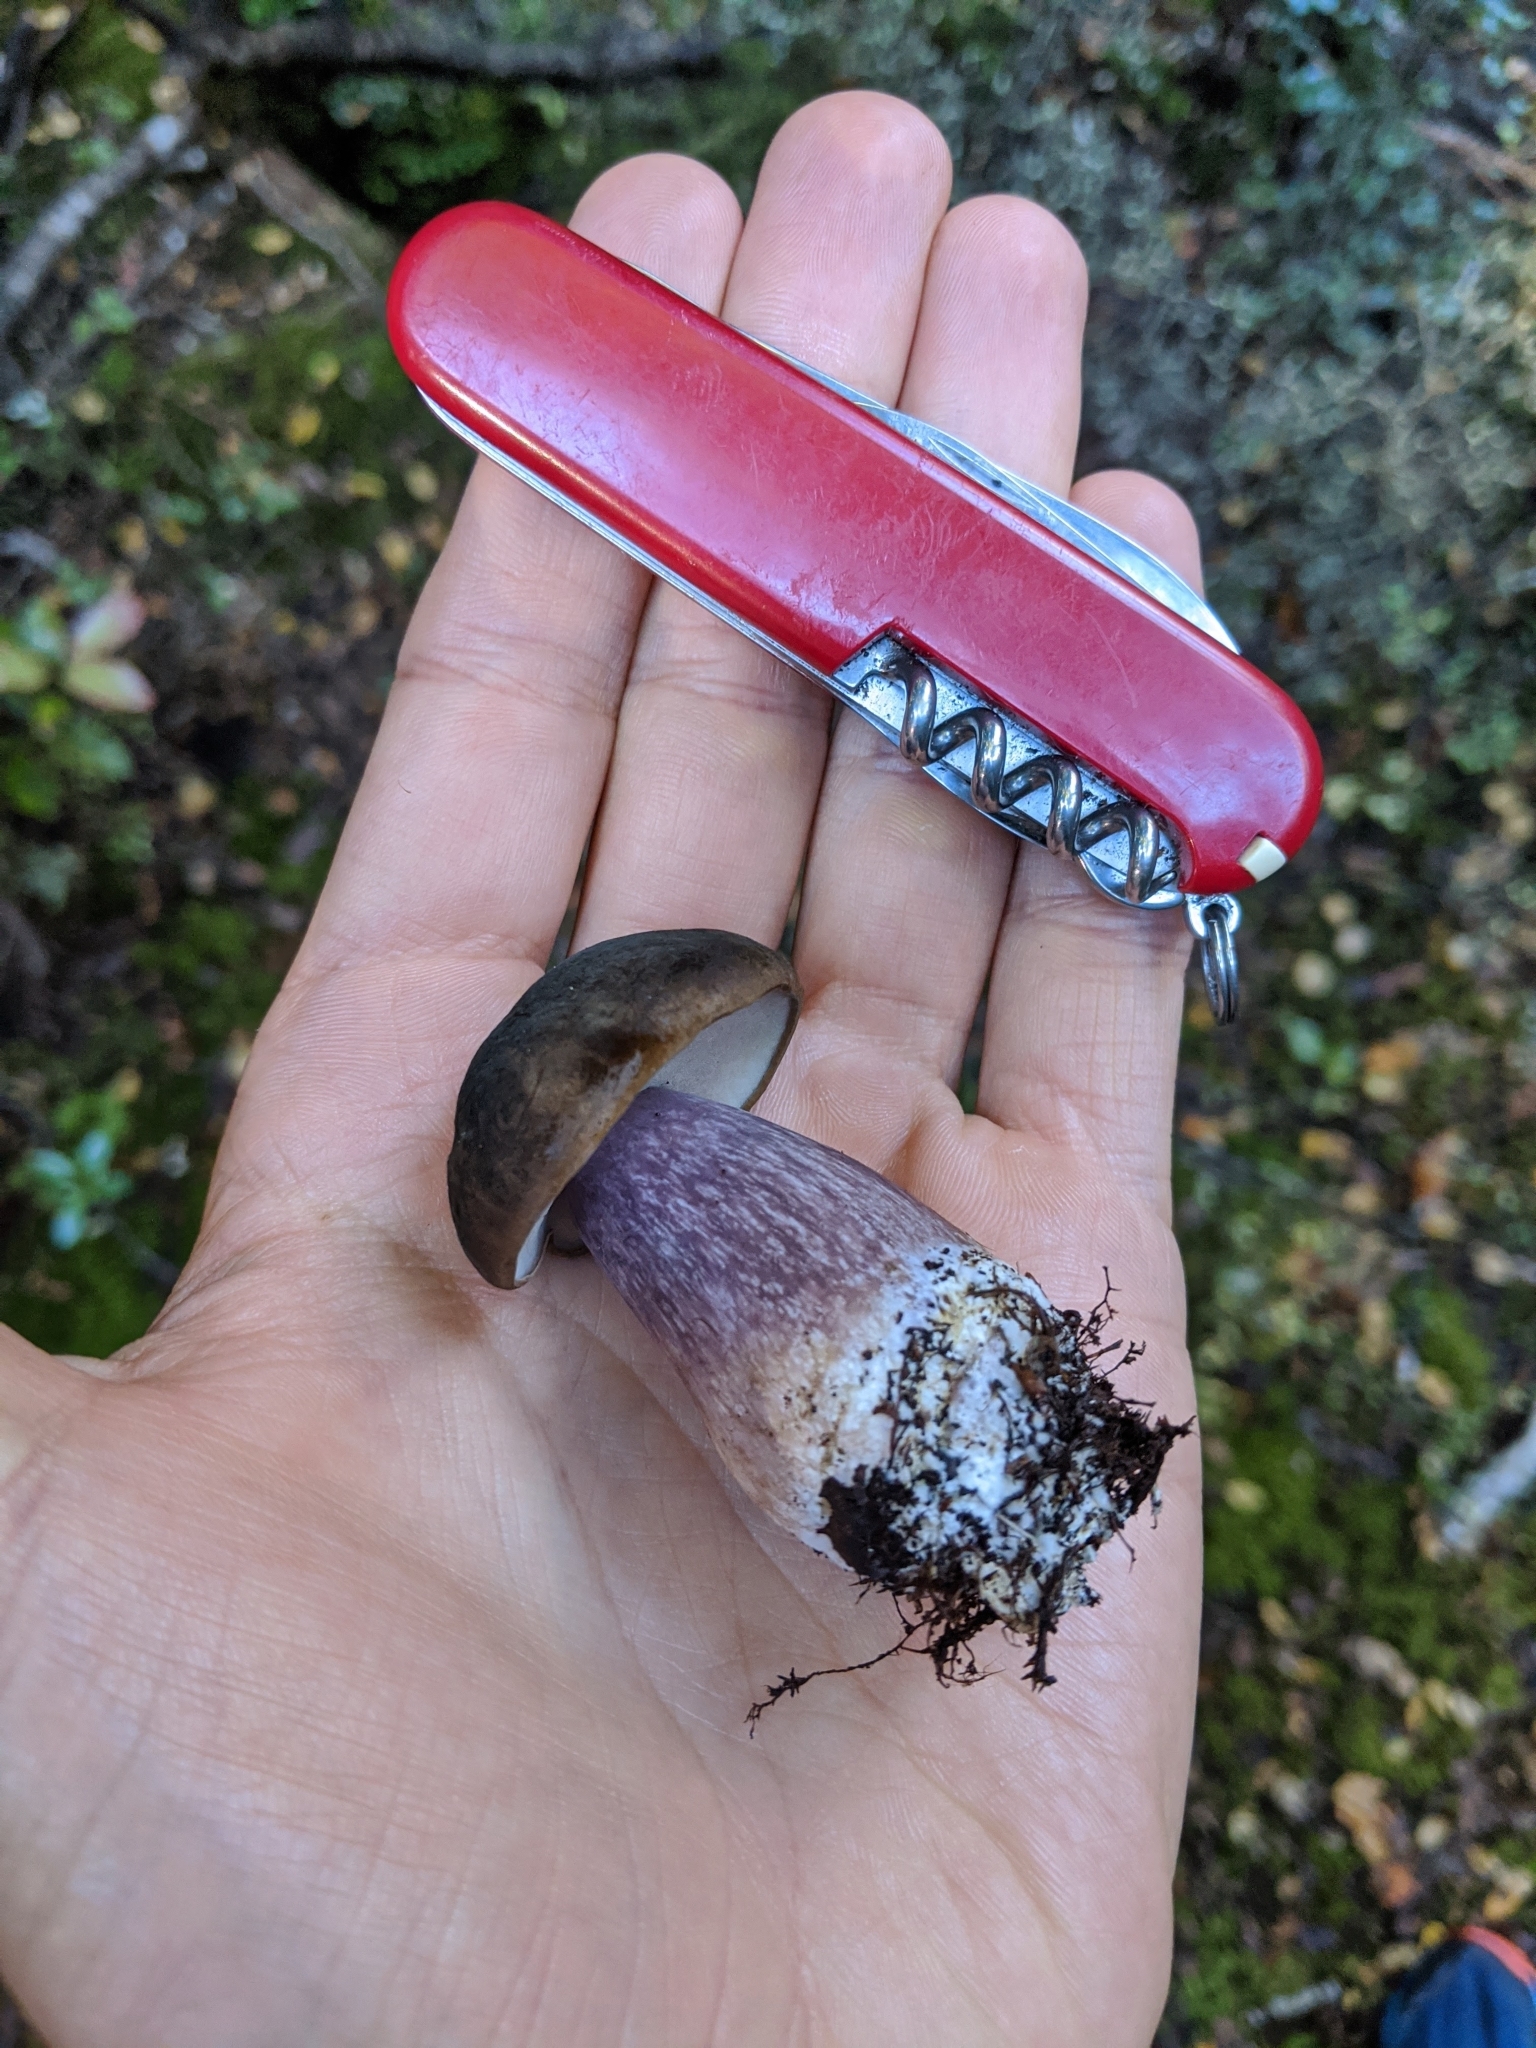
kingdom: Fungi
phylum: Basidiomycota
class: Agaricomycetes
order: Boletales
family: Boletaceae
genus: Porphyrellus
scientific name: Porphyrellus formosus
